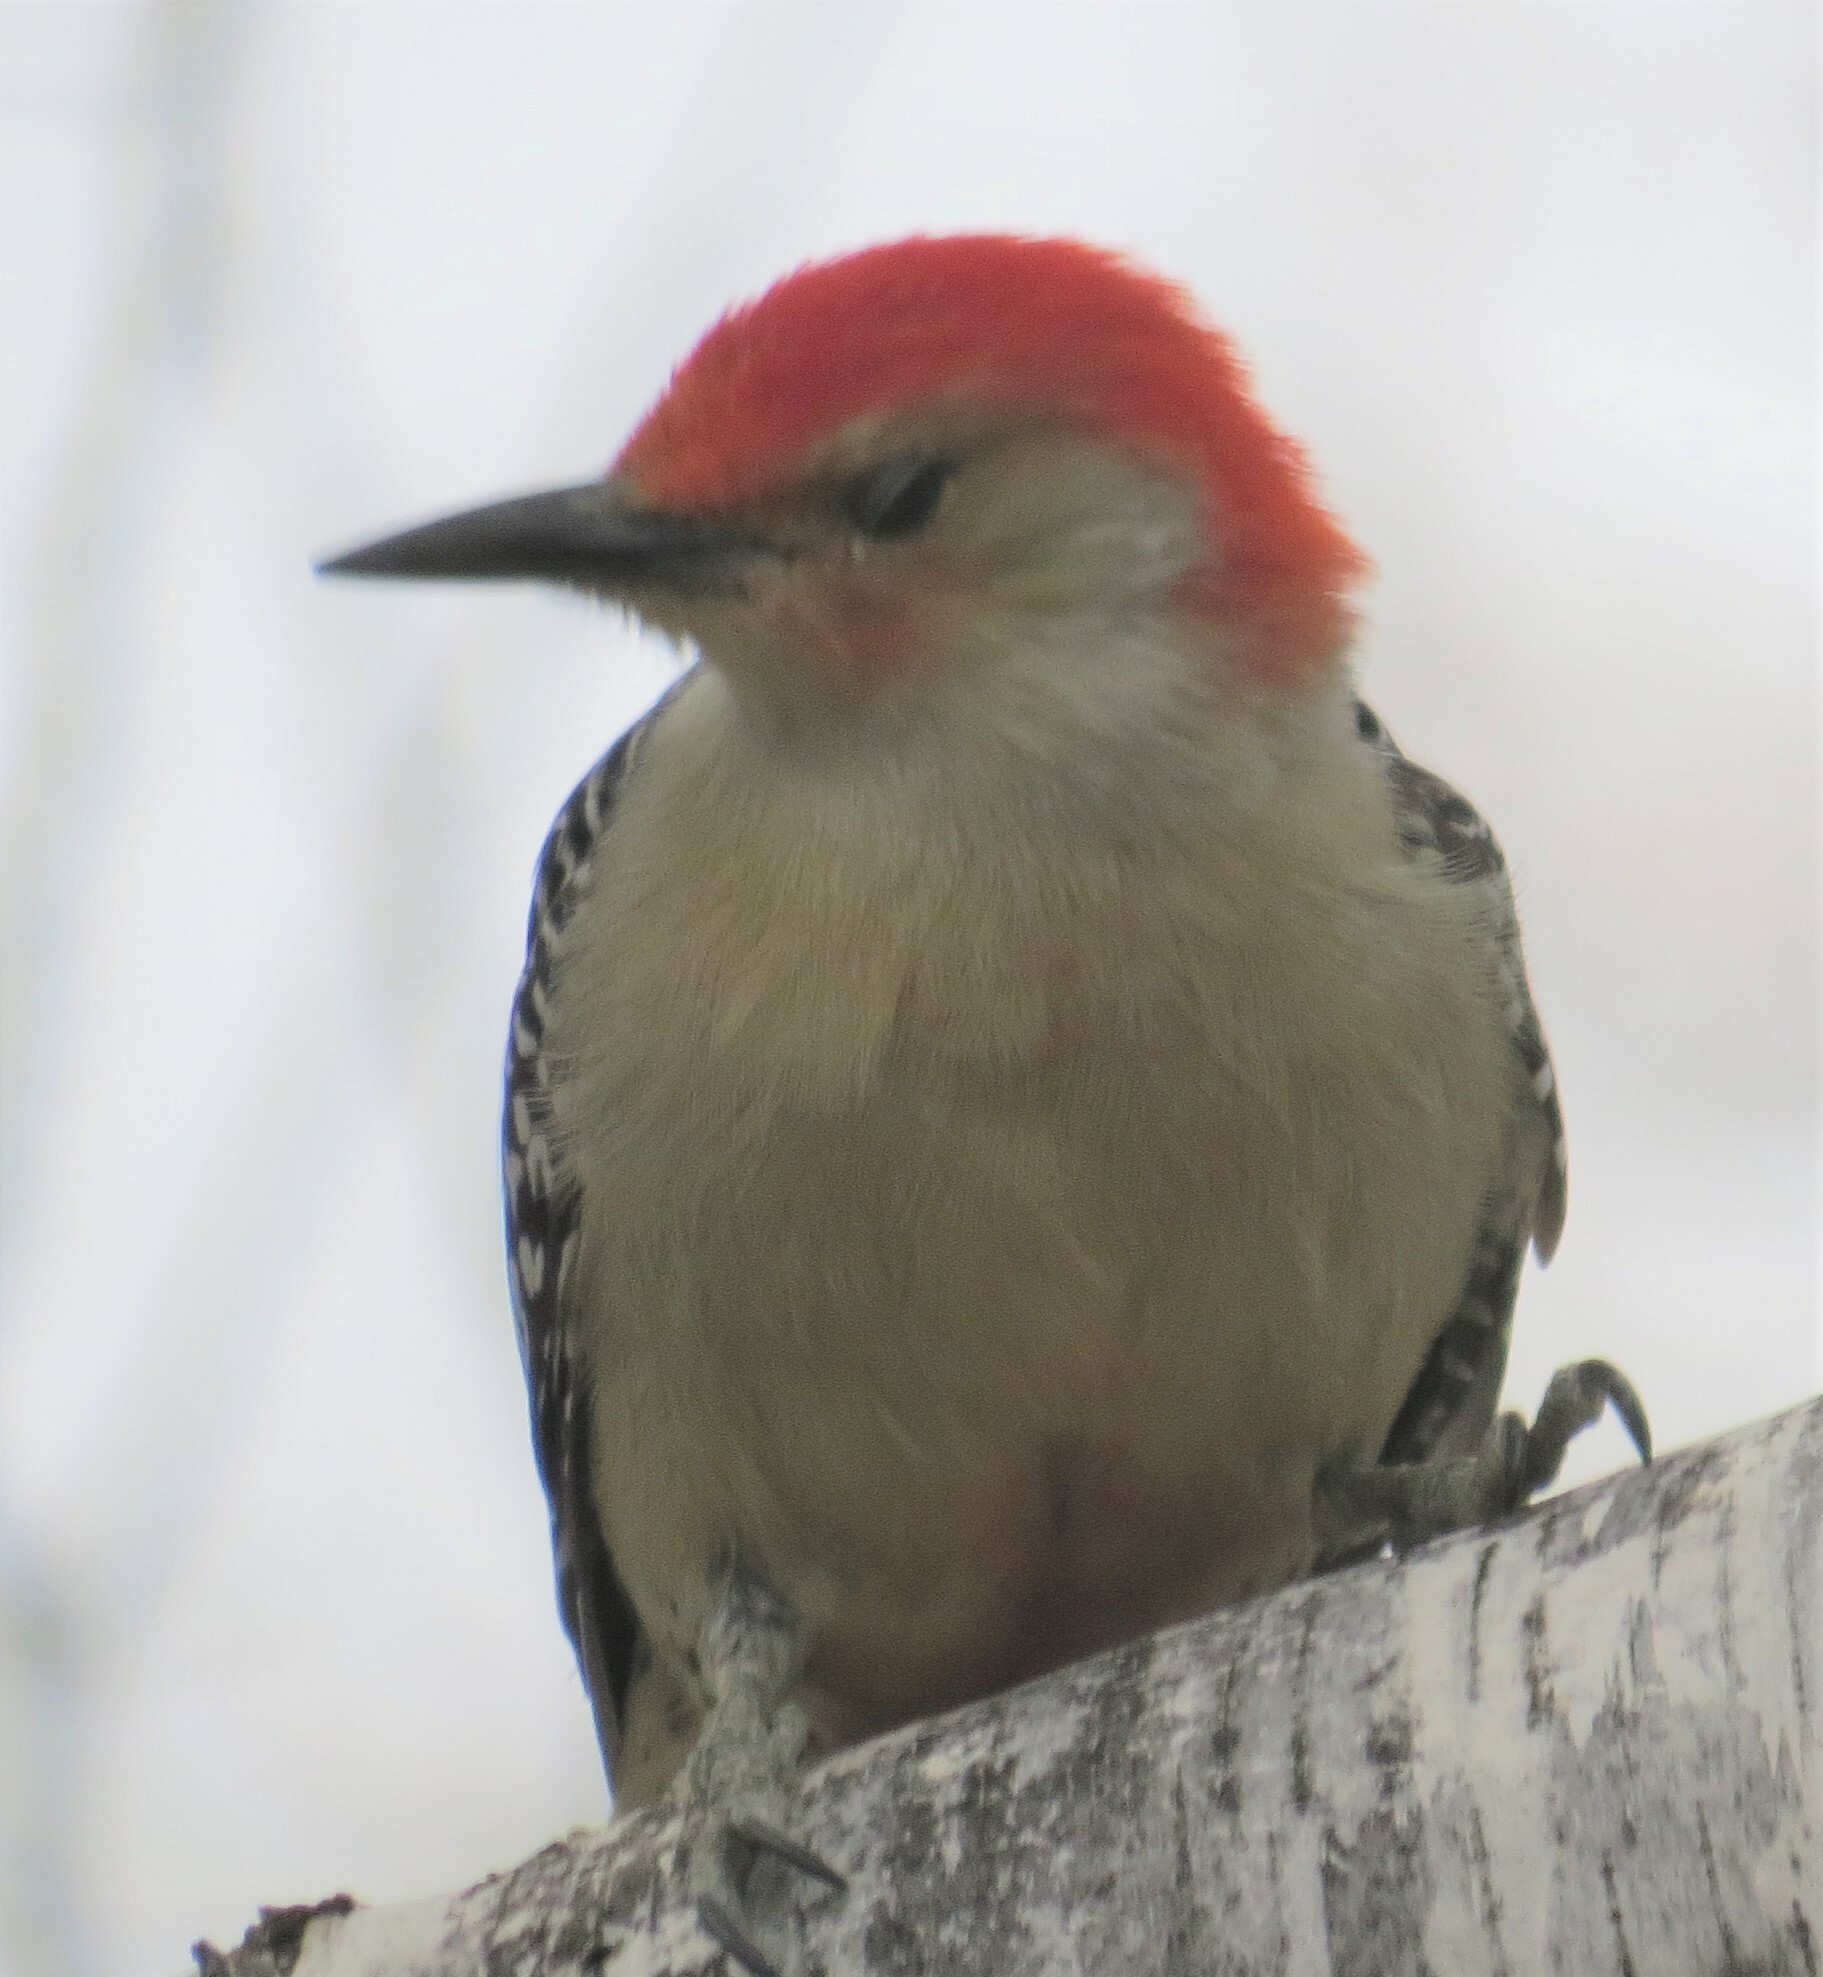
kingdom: Animalia
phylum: Chordata
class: Aves
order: Piciformes
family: Picidae
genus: Melanerpes
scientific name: Melanerpes carolinus
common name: Red-bellied woodpecker
